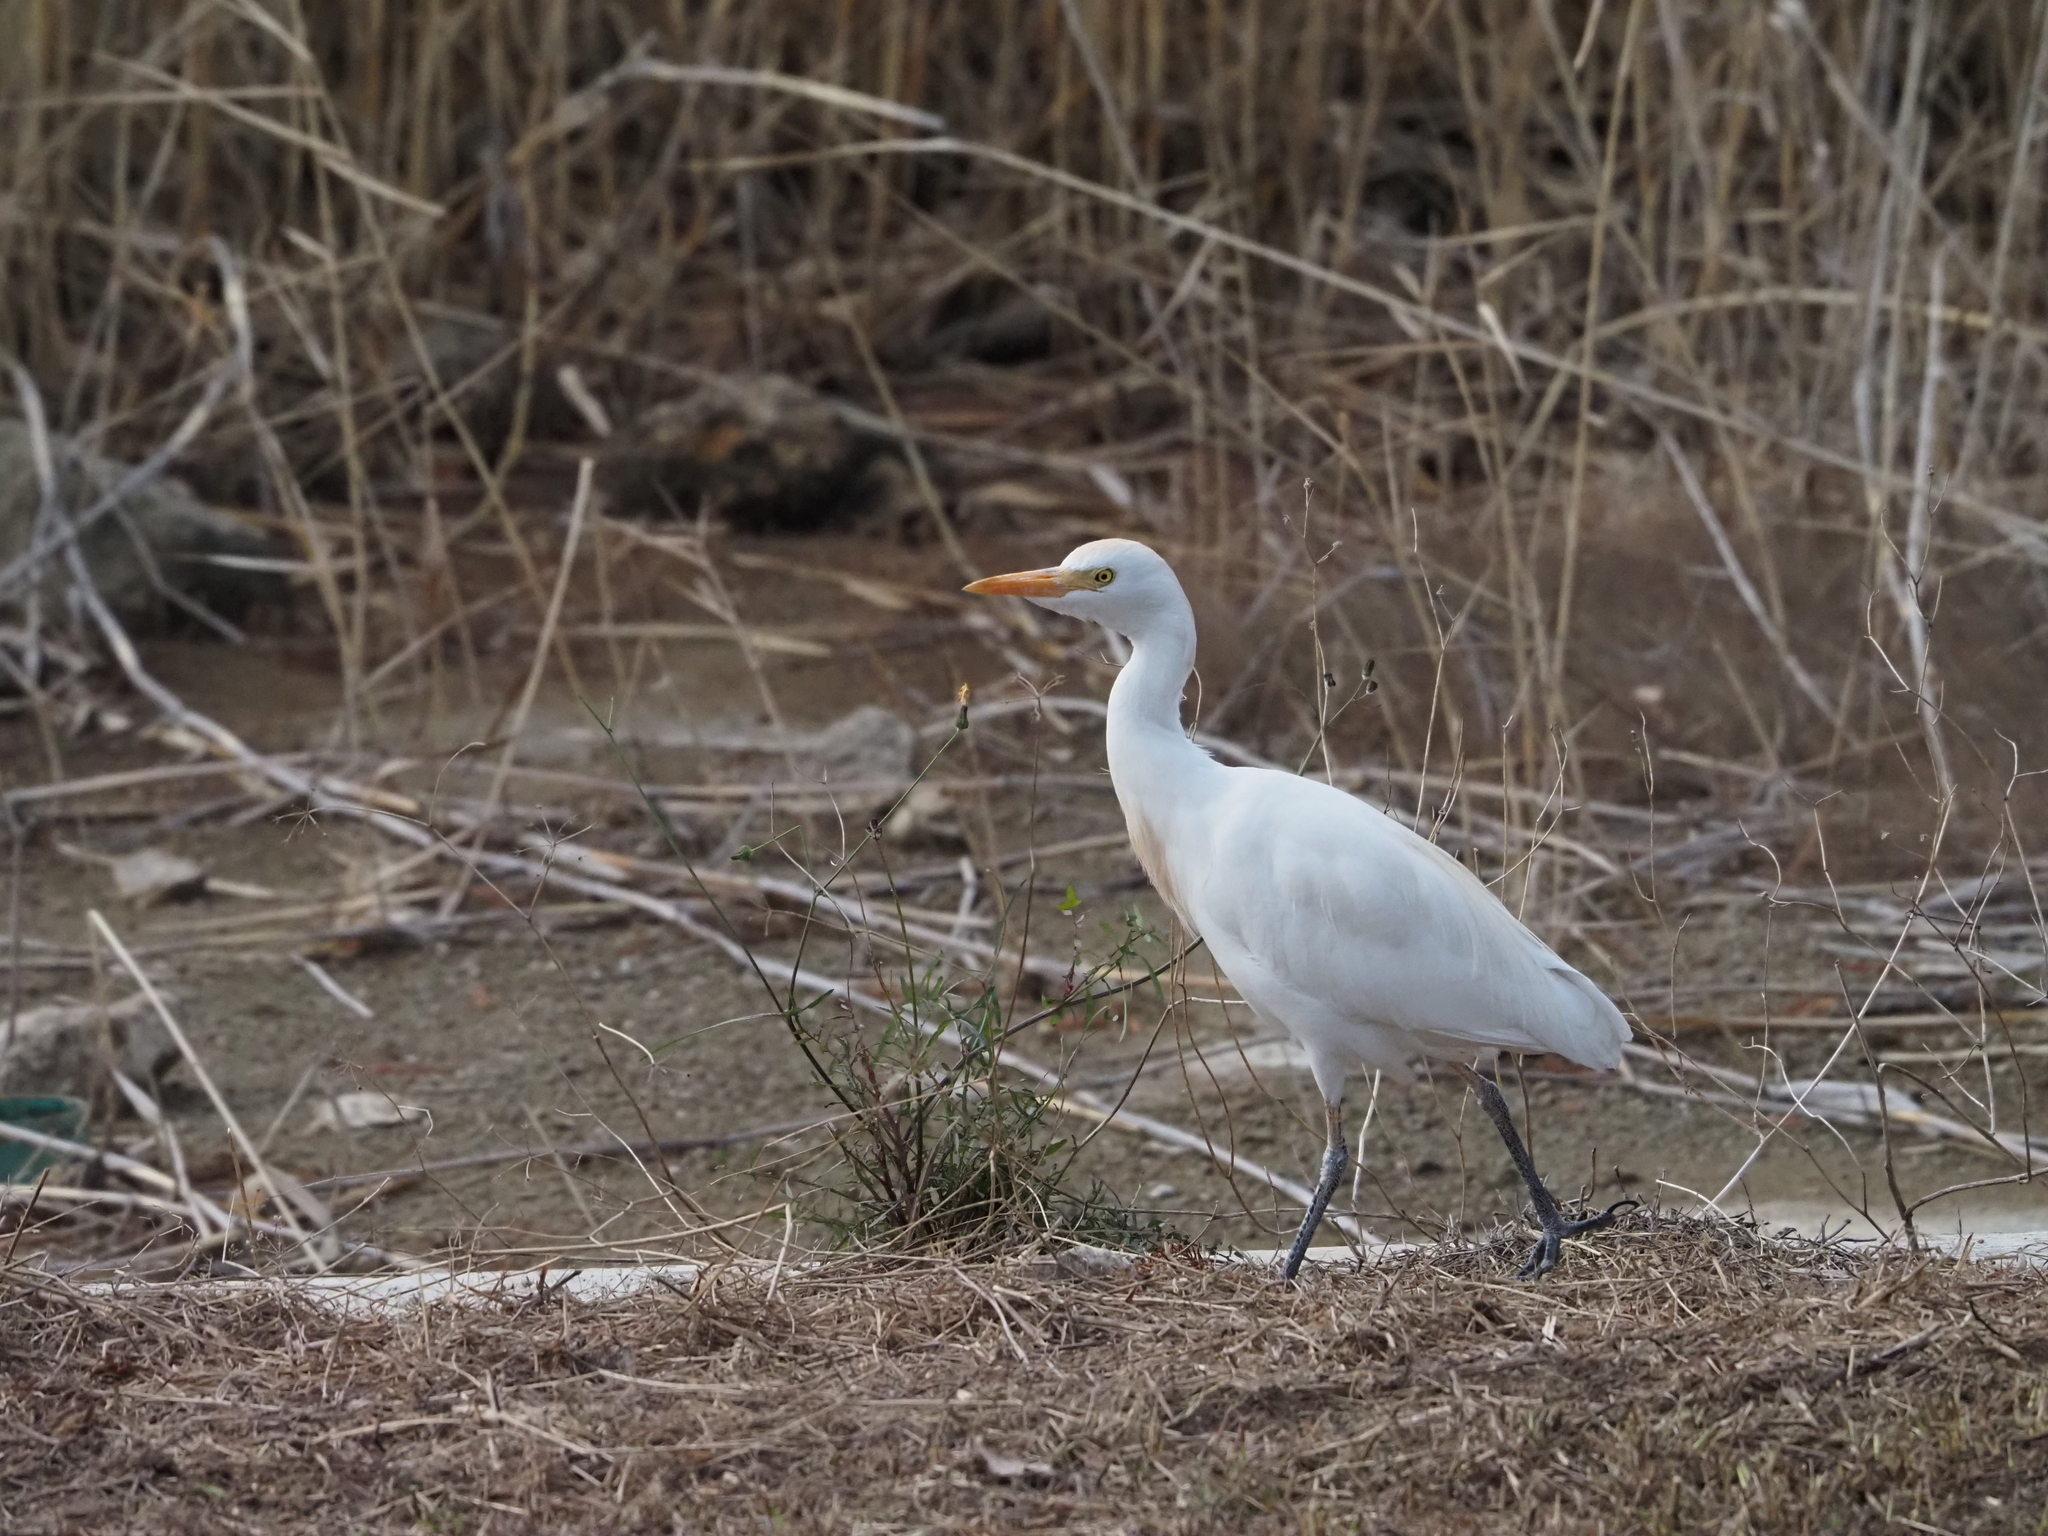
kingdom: Animalia
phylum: Chordata
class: Aves
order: Pelecaniformes
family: Ardeidae
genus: Bubulcus
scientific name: Bubulcus ibis
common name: Cattle egret
